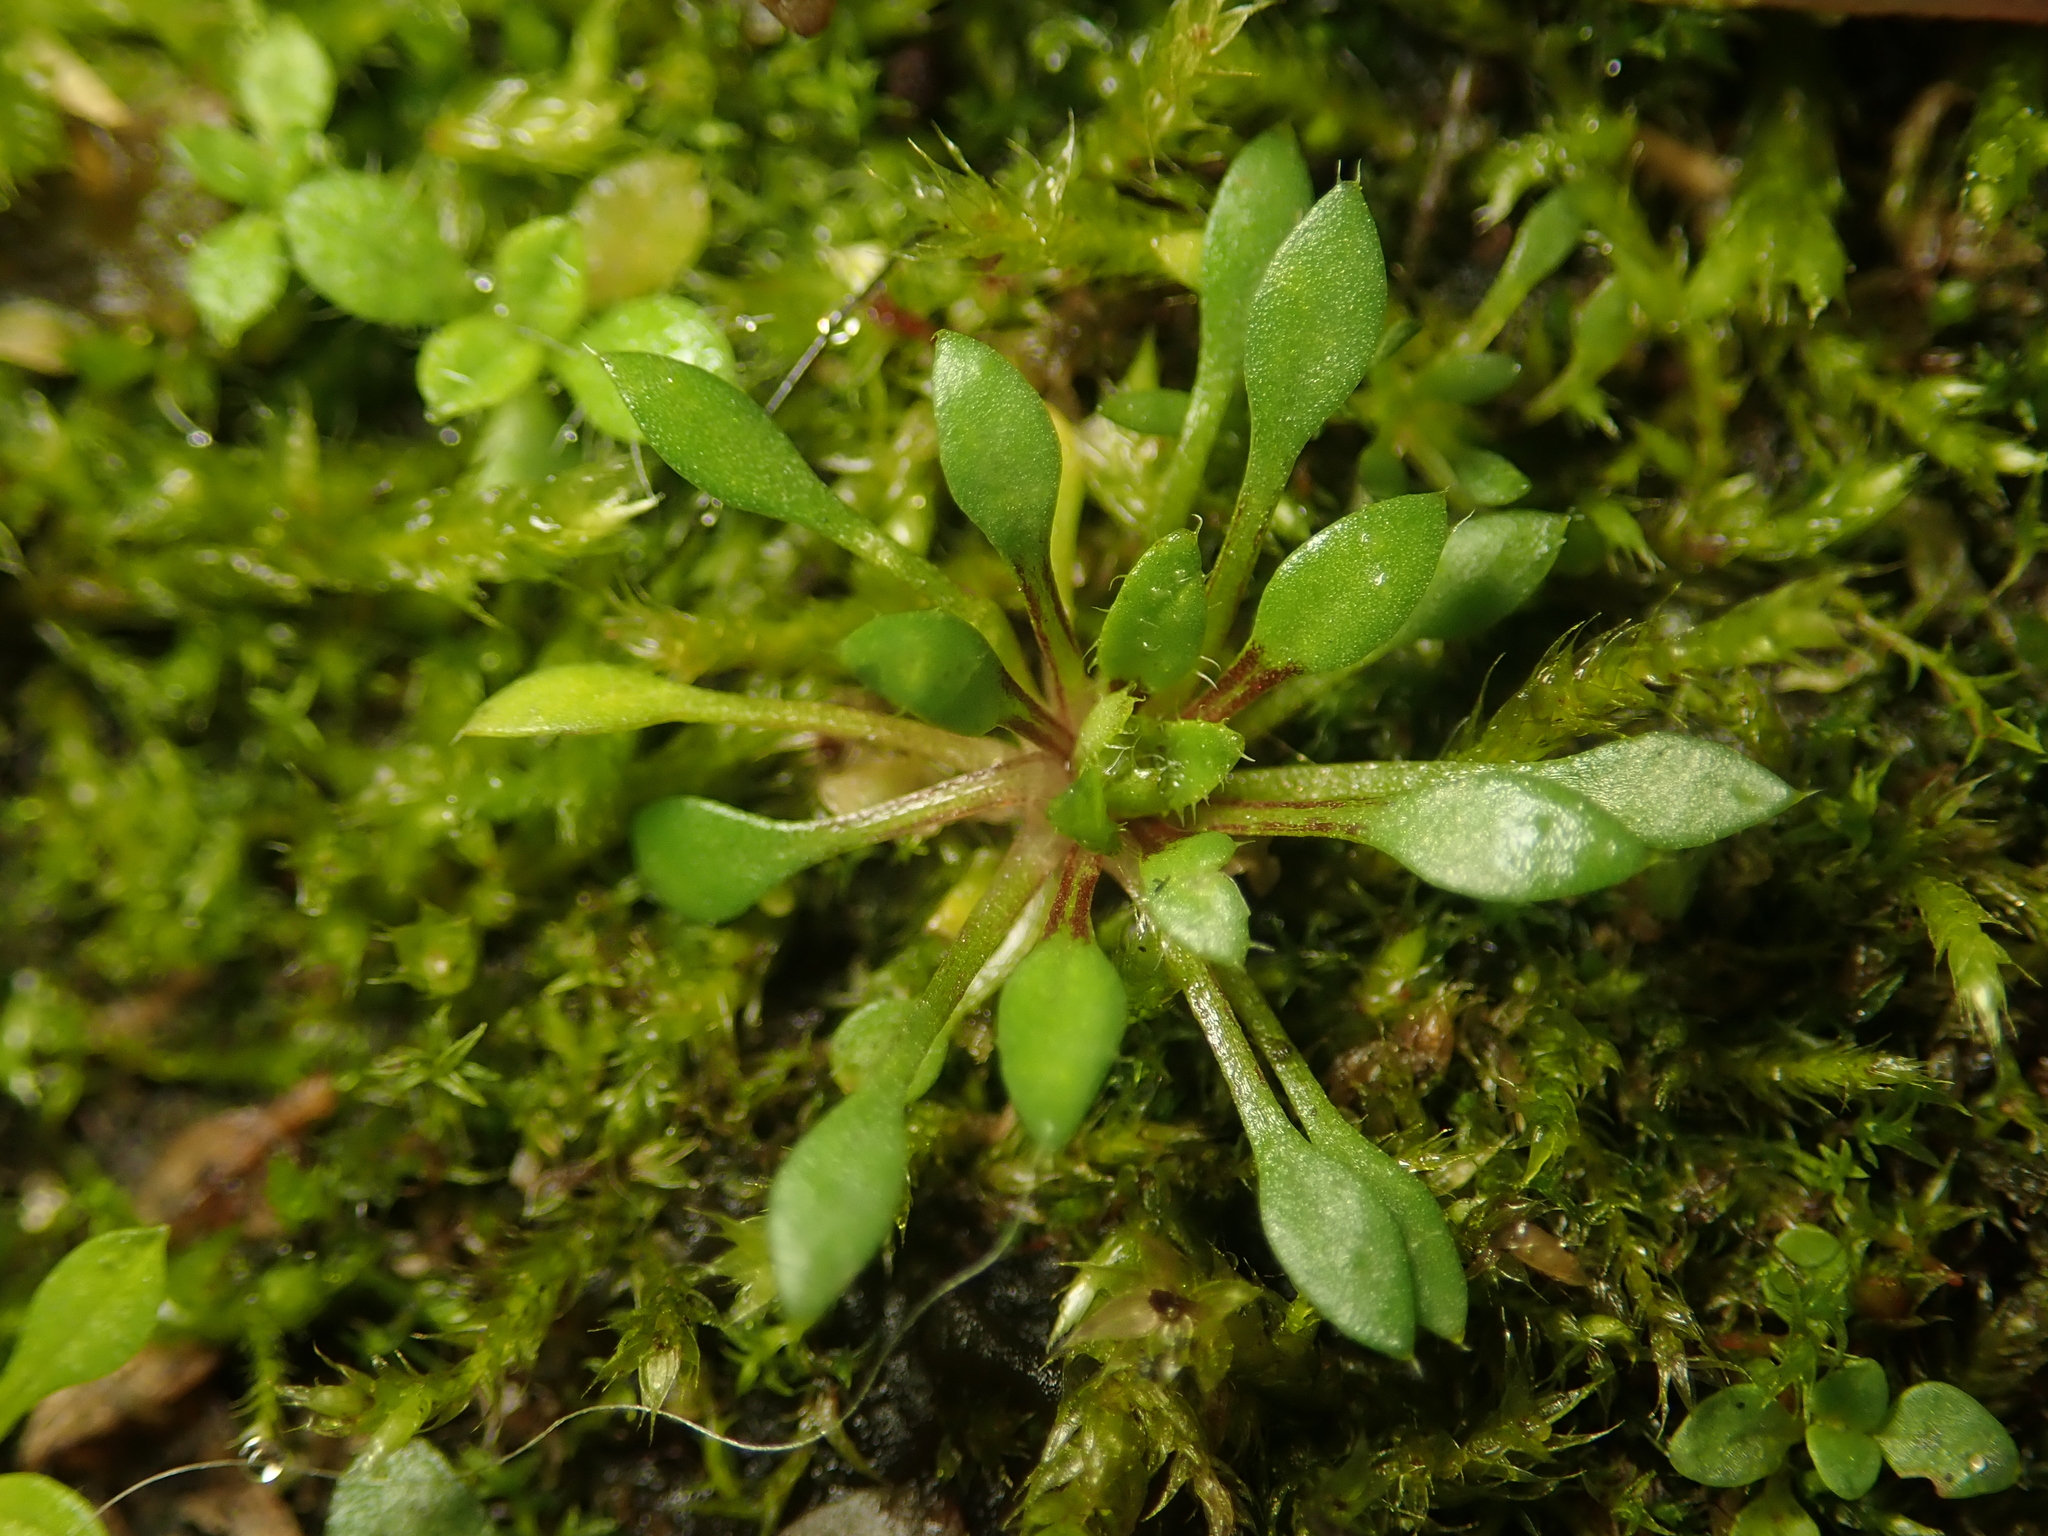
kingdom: Plantae
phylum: Tracheophyta
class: Magnoliopsida
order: Brassicales
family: Brassicaceae
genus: Draba
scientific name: Draba verna
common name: Spring draba
